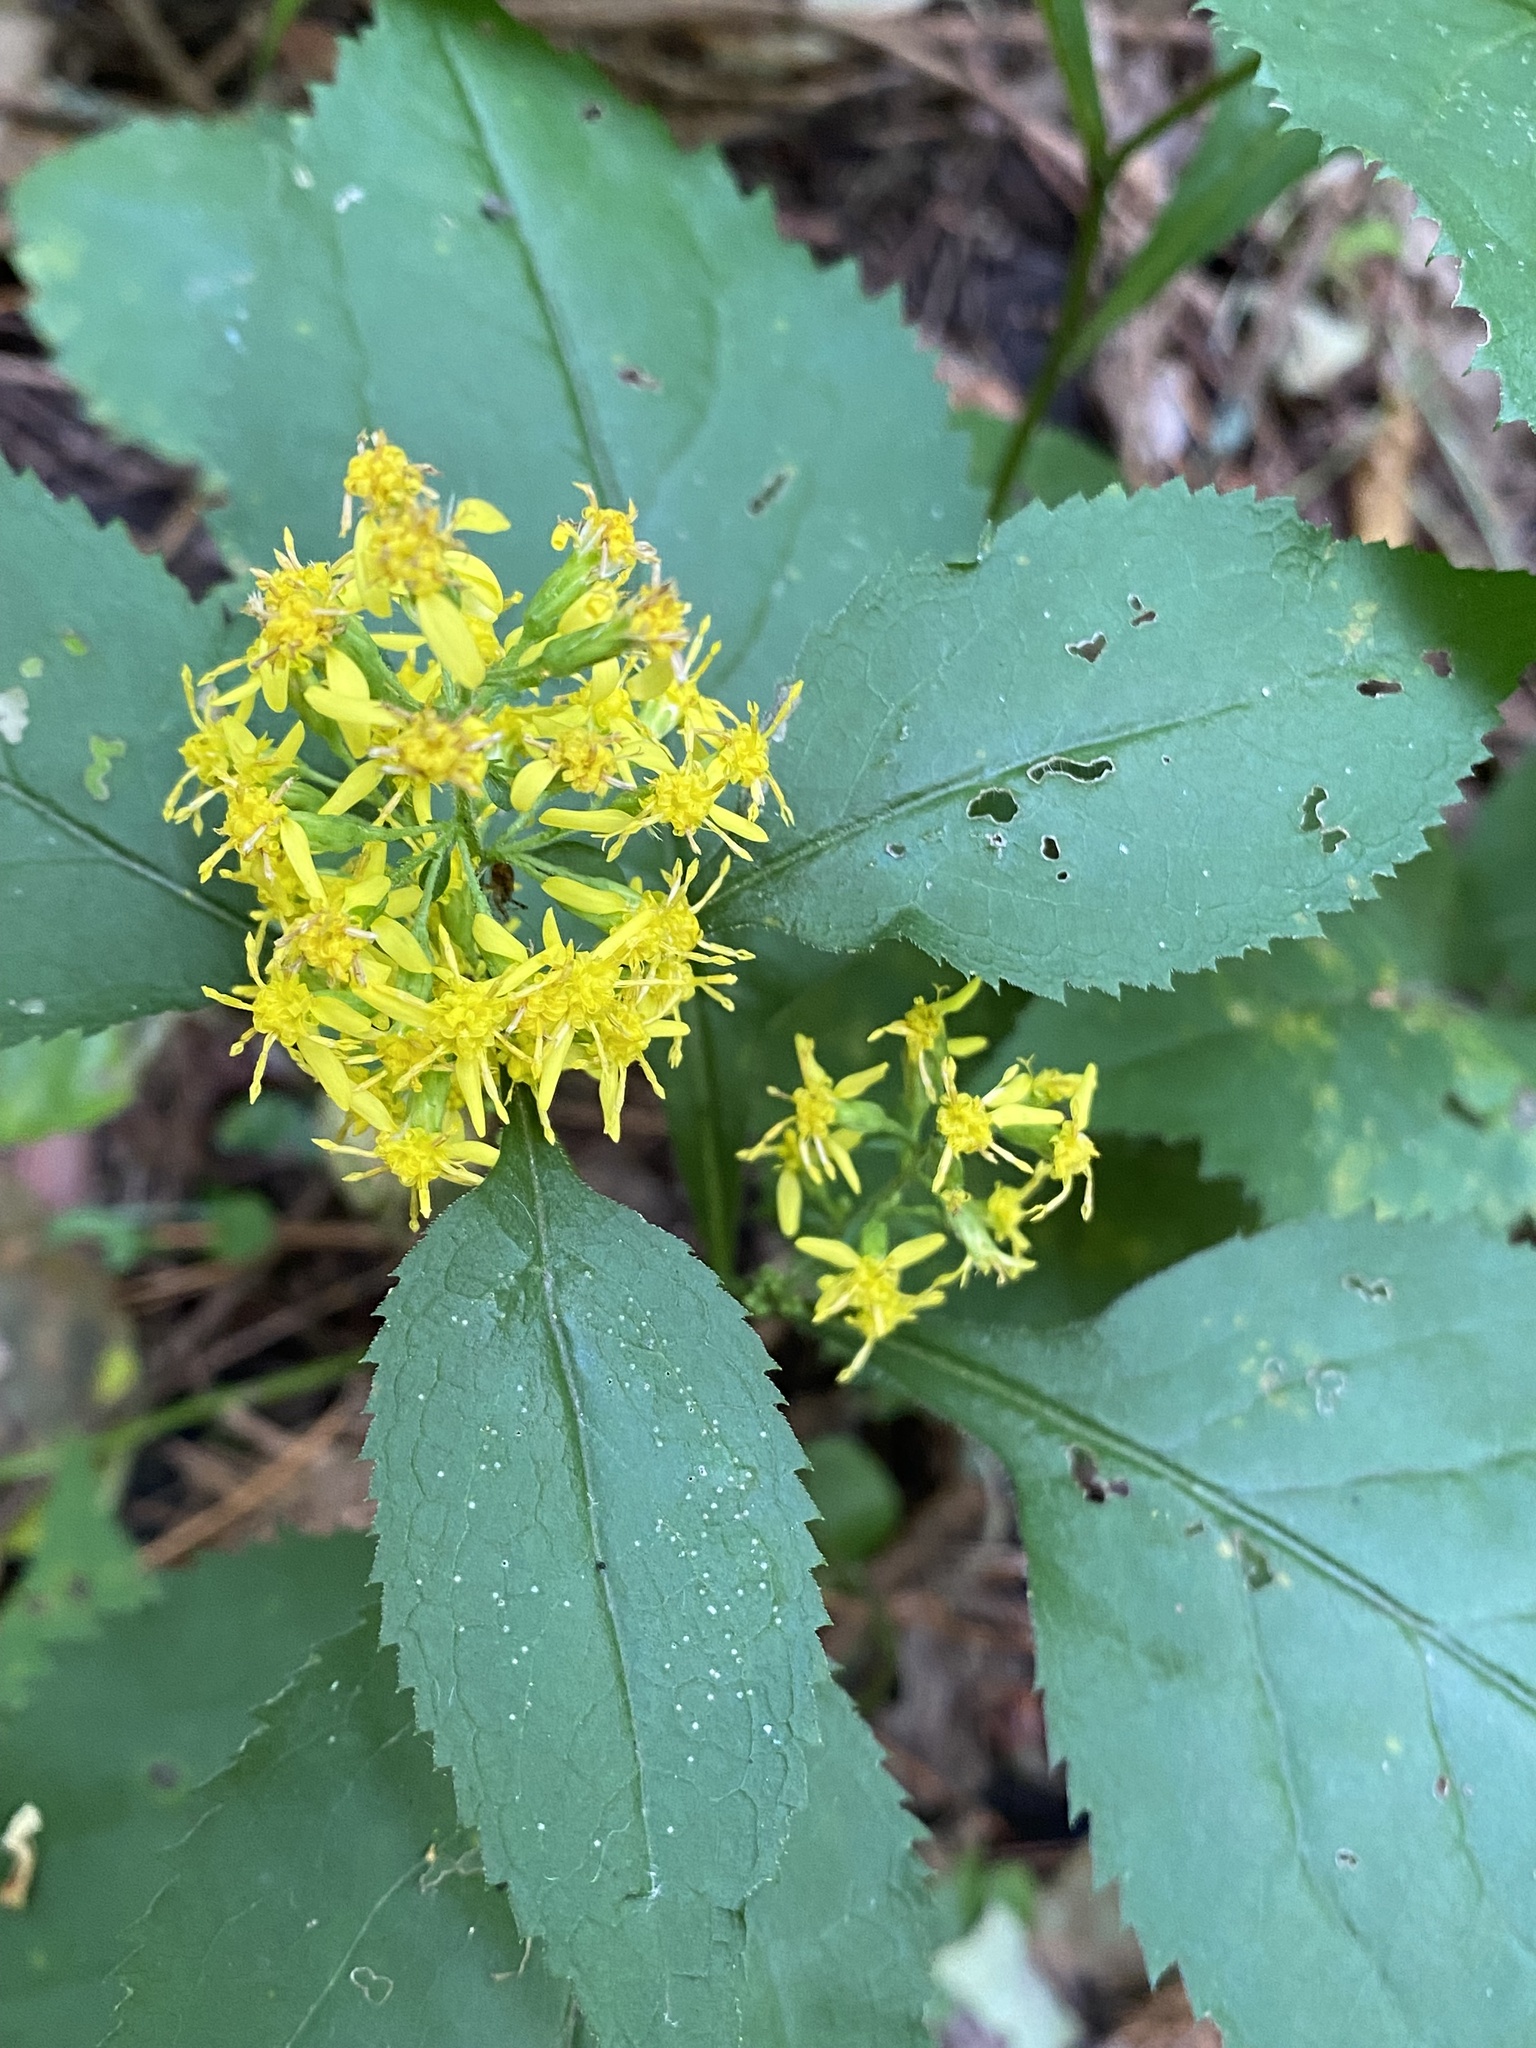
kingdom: Plantae
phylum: Tracheophyta
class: Magnoliopsida
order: Asterales
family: Asteraceae
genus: Solidago
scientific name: Solidago flexicaulis
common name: Zig-zag goldenrod
